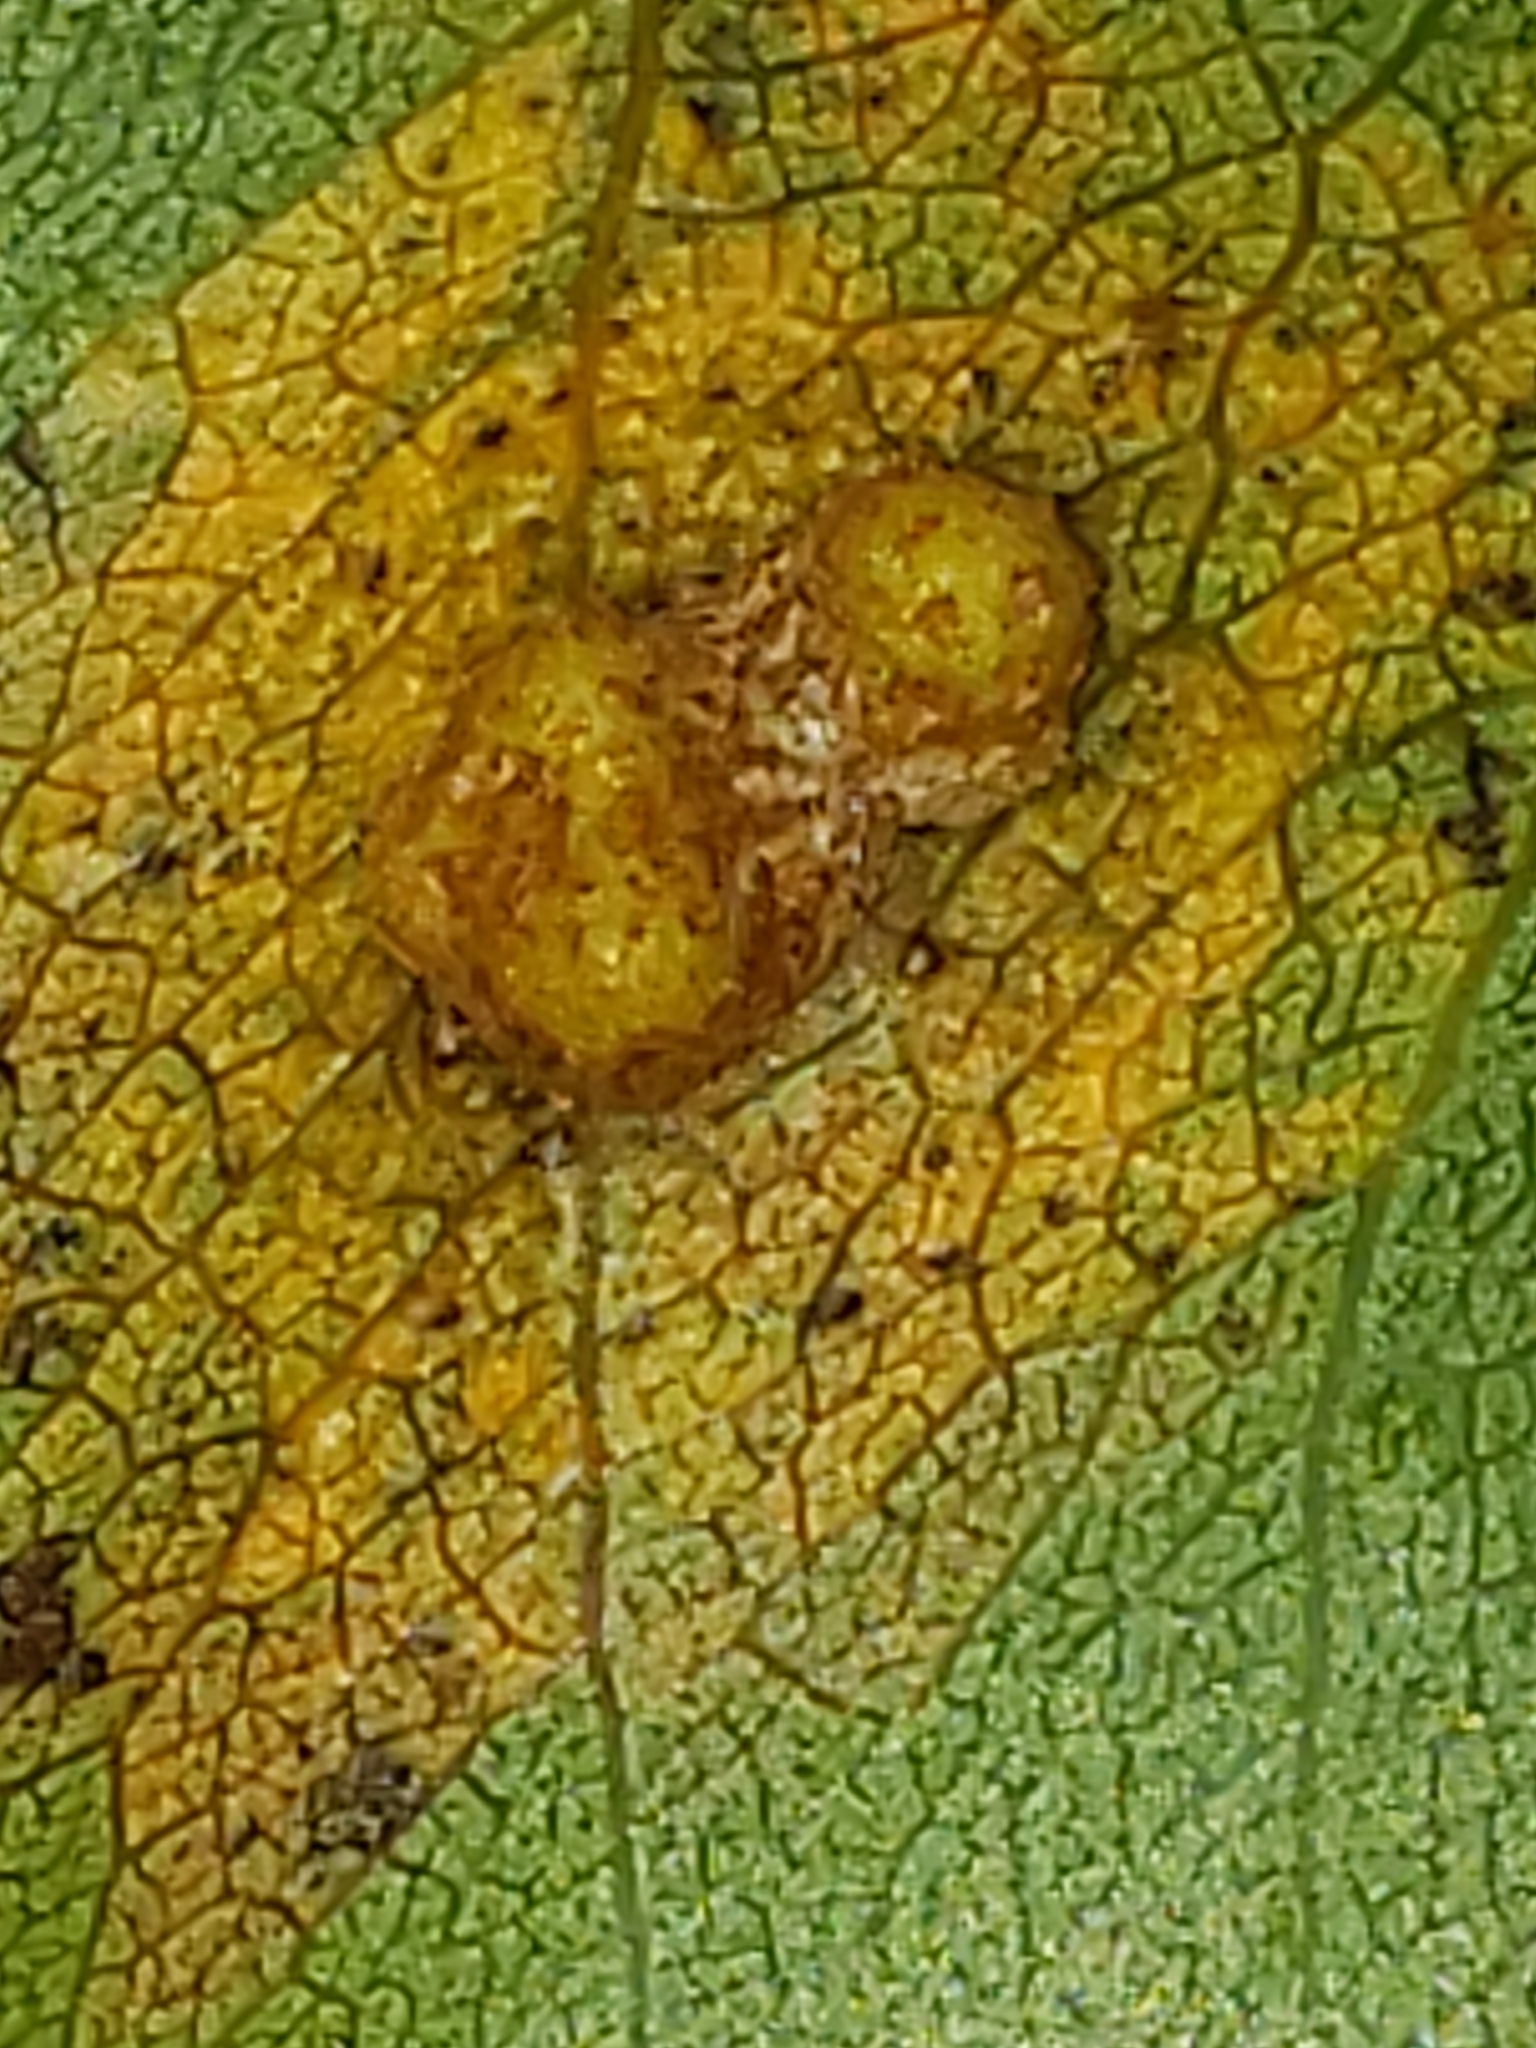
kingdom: Fungi
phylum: Basidiomycota
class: Pucciniomycetes
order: Pucciniales
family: Gymnosporangiaceae
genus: Gymnosporangium
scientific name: Gymnosporangium sabinae
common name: Pear trellis rust fungus
